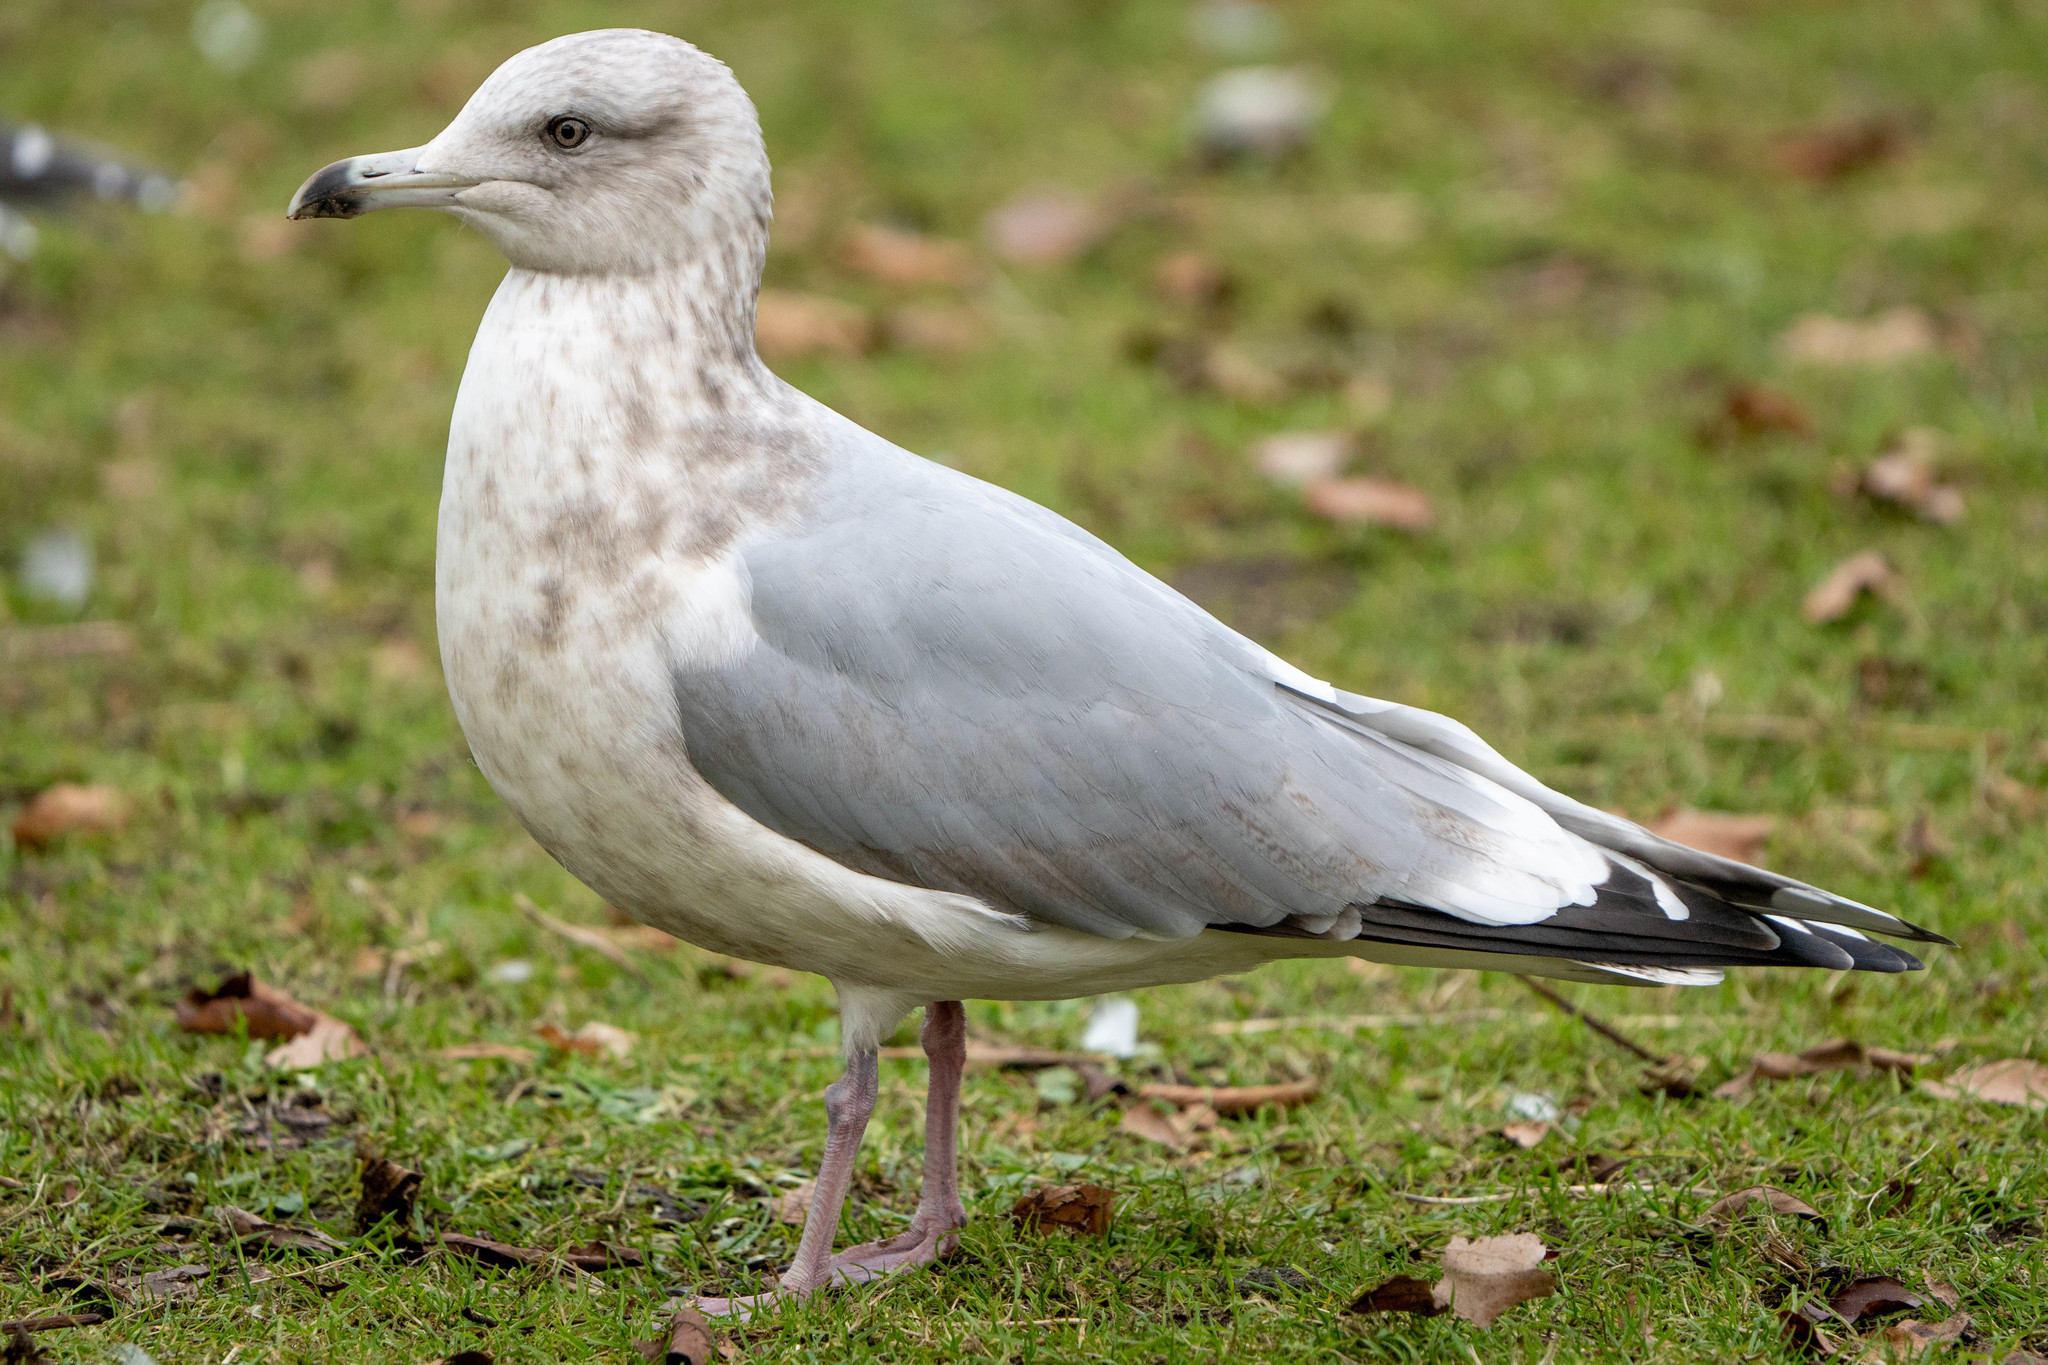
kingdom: Animalia
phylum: Chordata
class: Aves
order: Charadriiformes
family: Laridae
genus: Larus
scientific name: Larus glaucoides
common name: Iceland gull
